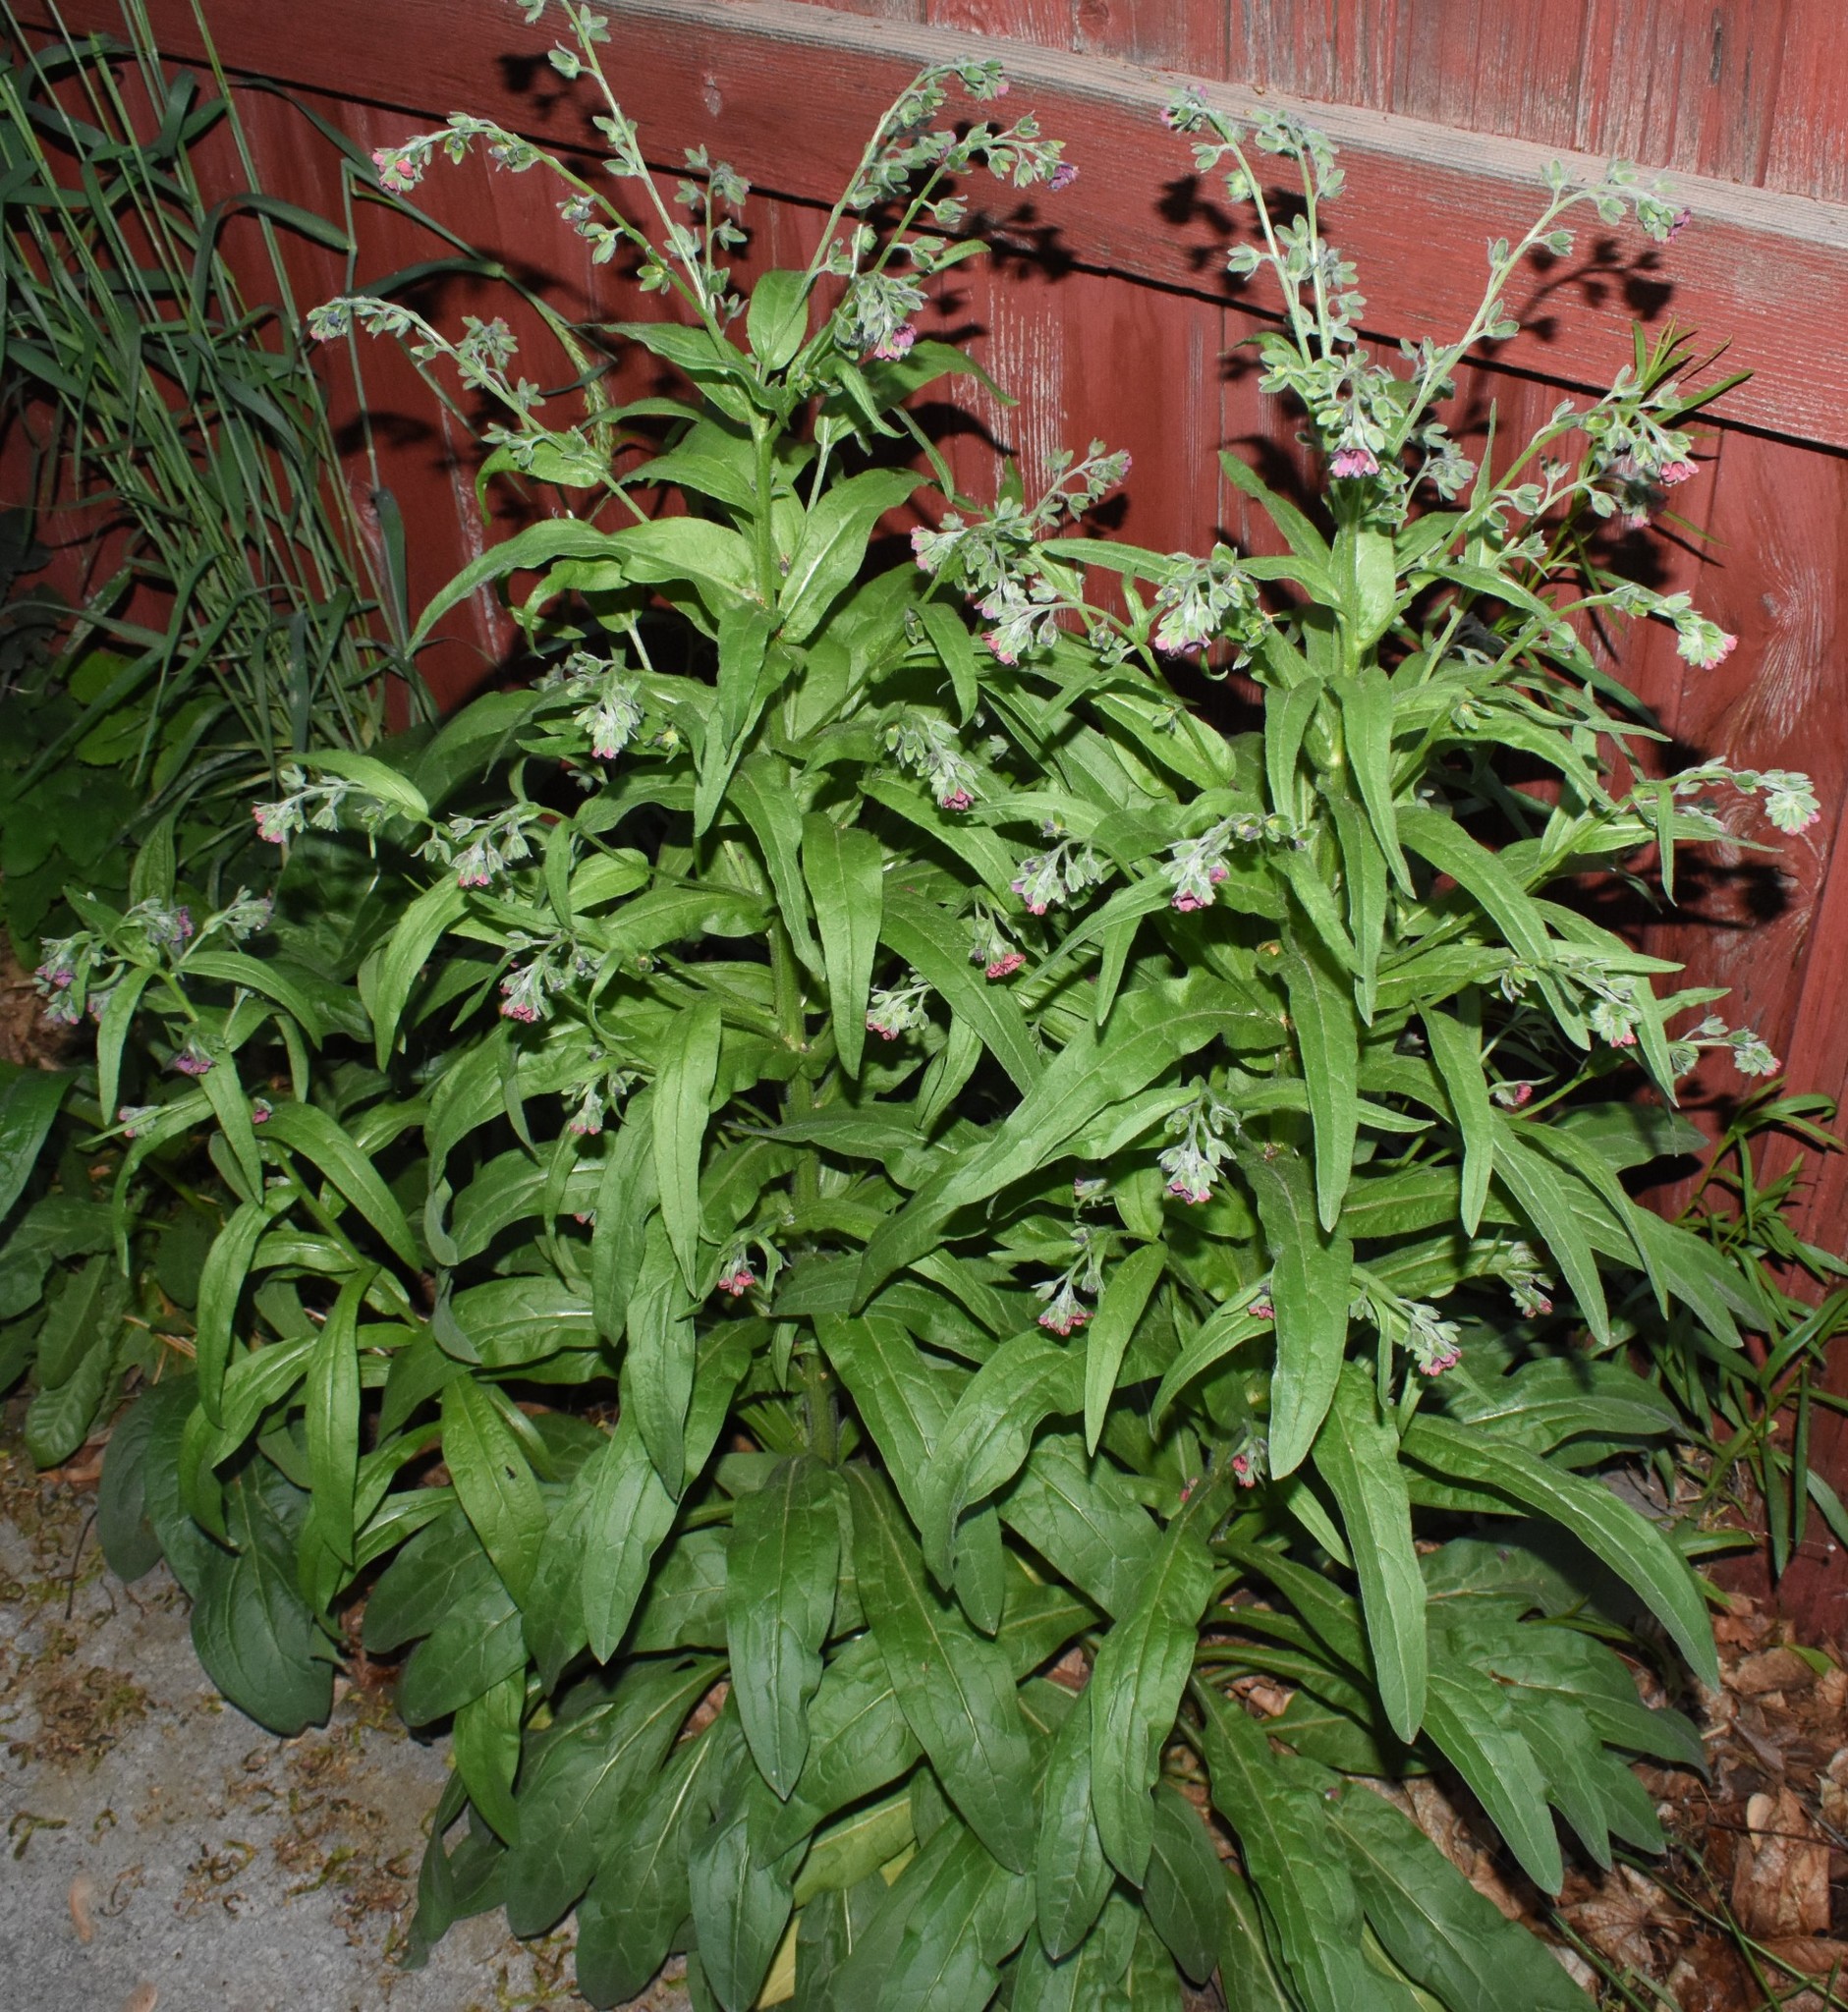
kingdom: Plantae
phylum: Tracheophyta
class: Magnoliopsida
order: Boraginales
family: Boraginaceae
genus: Cynoglossum
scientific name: Cynoglossum officinale
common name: Hound's-tongue
